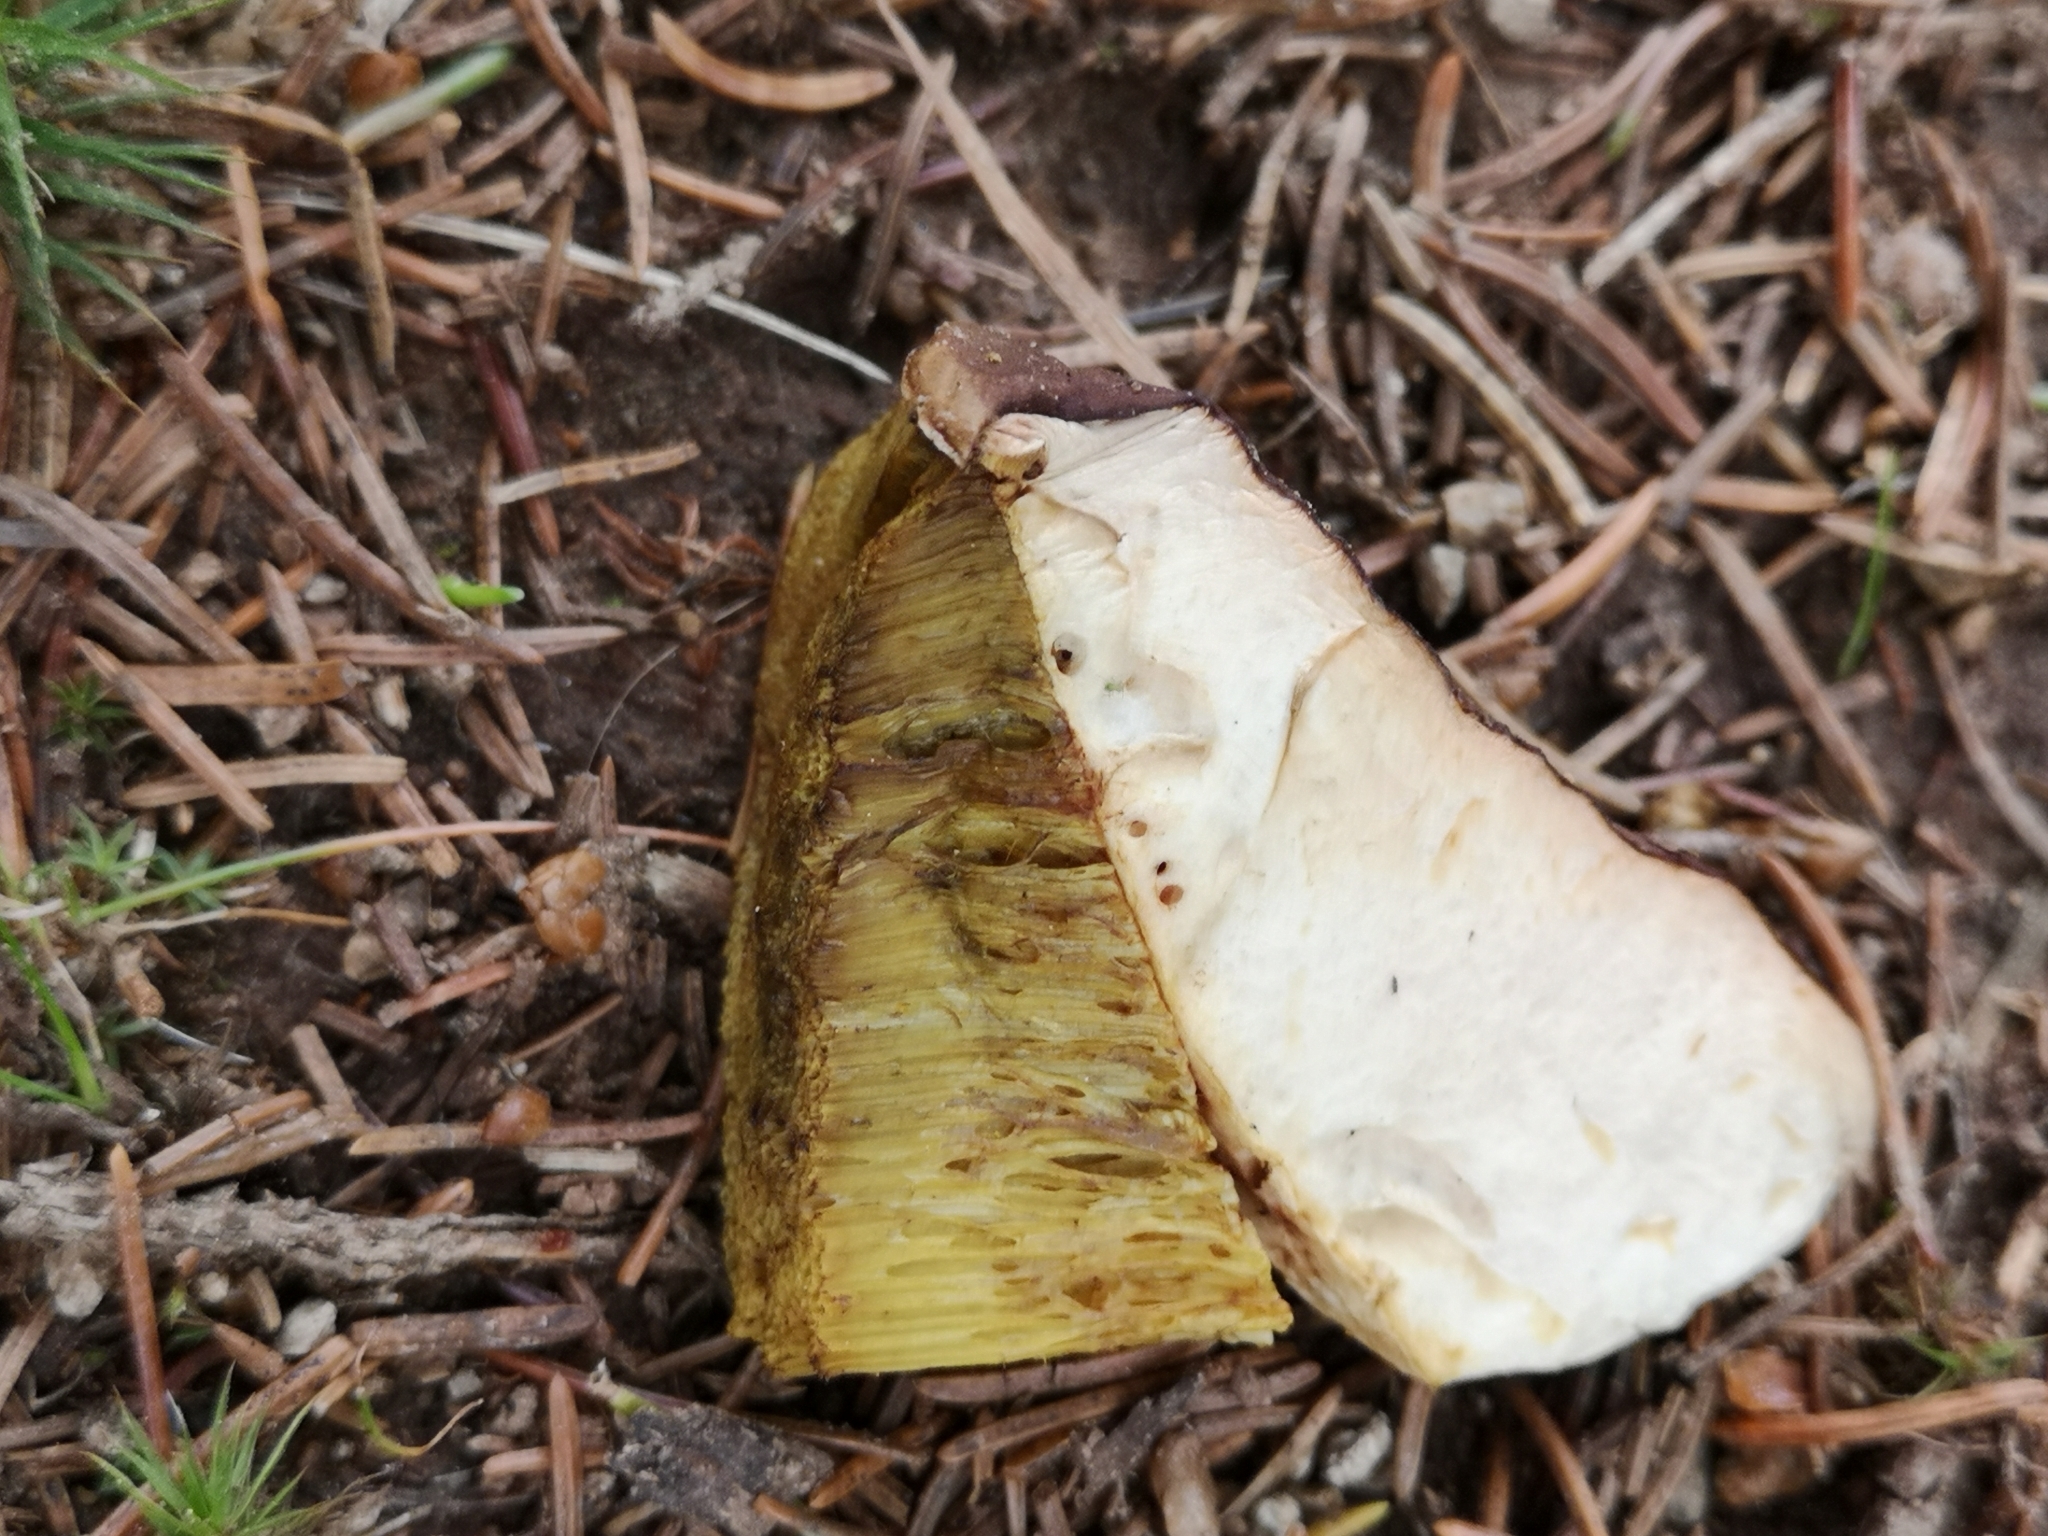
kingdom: Fungi
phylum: Basidiomycota
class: Agaricomycetes
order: Boletales
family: Boletaceae
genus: Boletus
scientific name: Boletus edulis
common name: Cep
